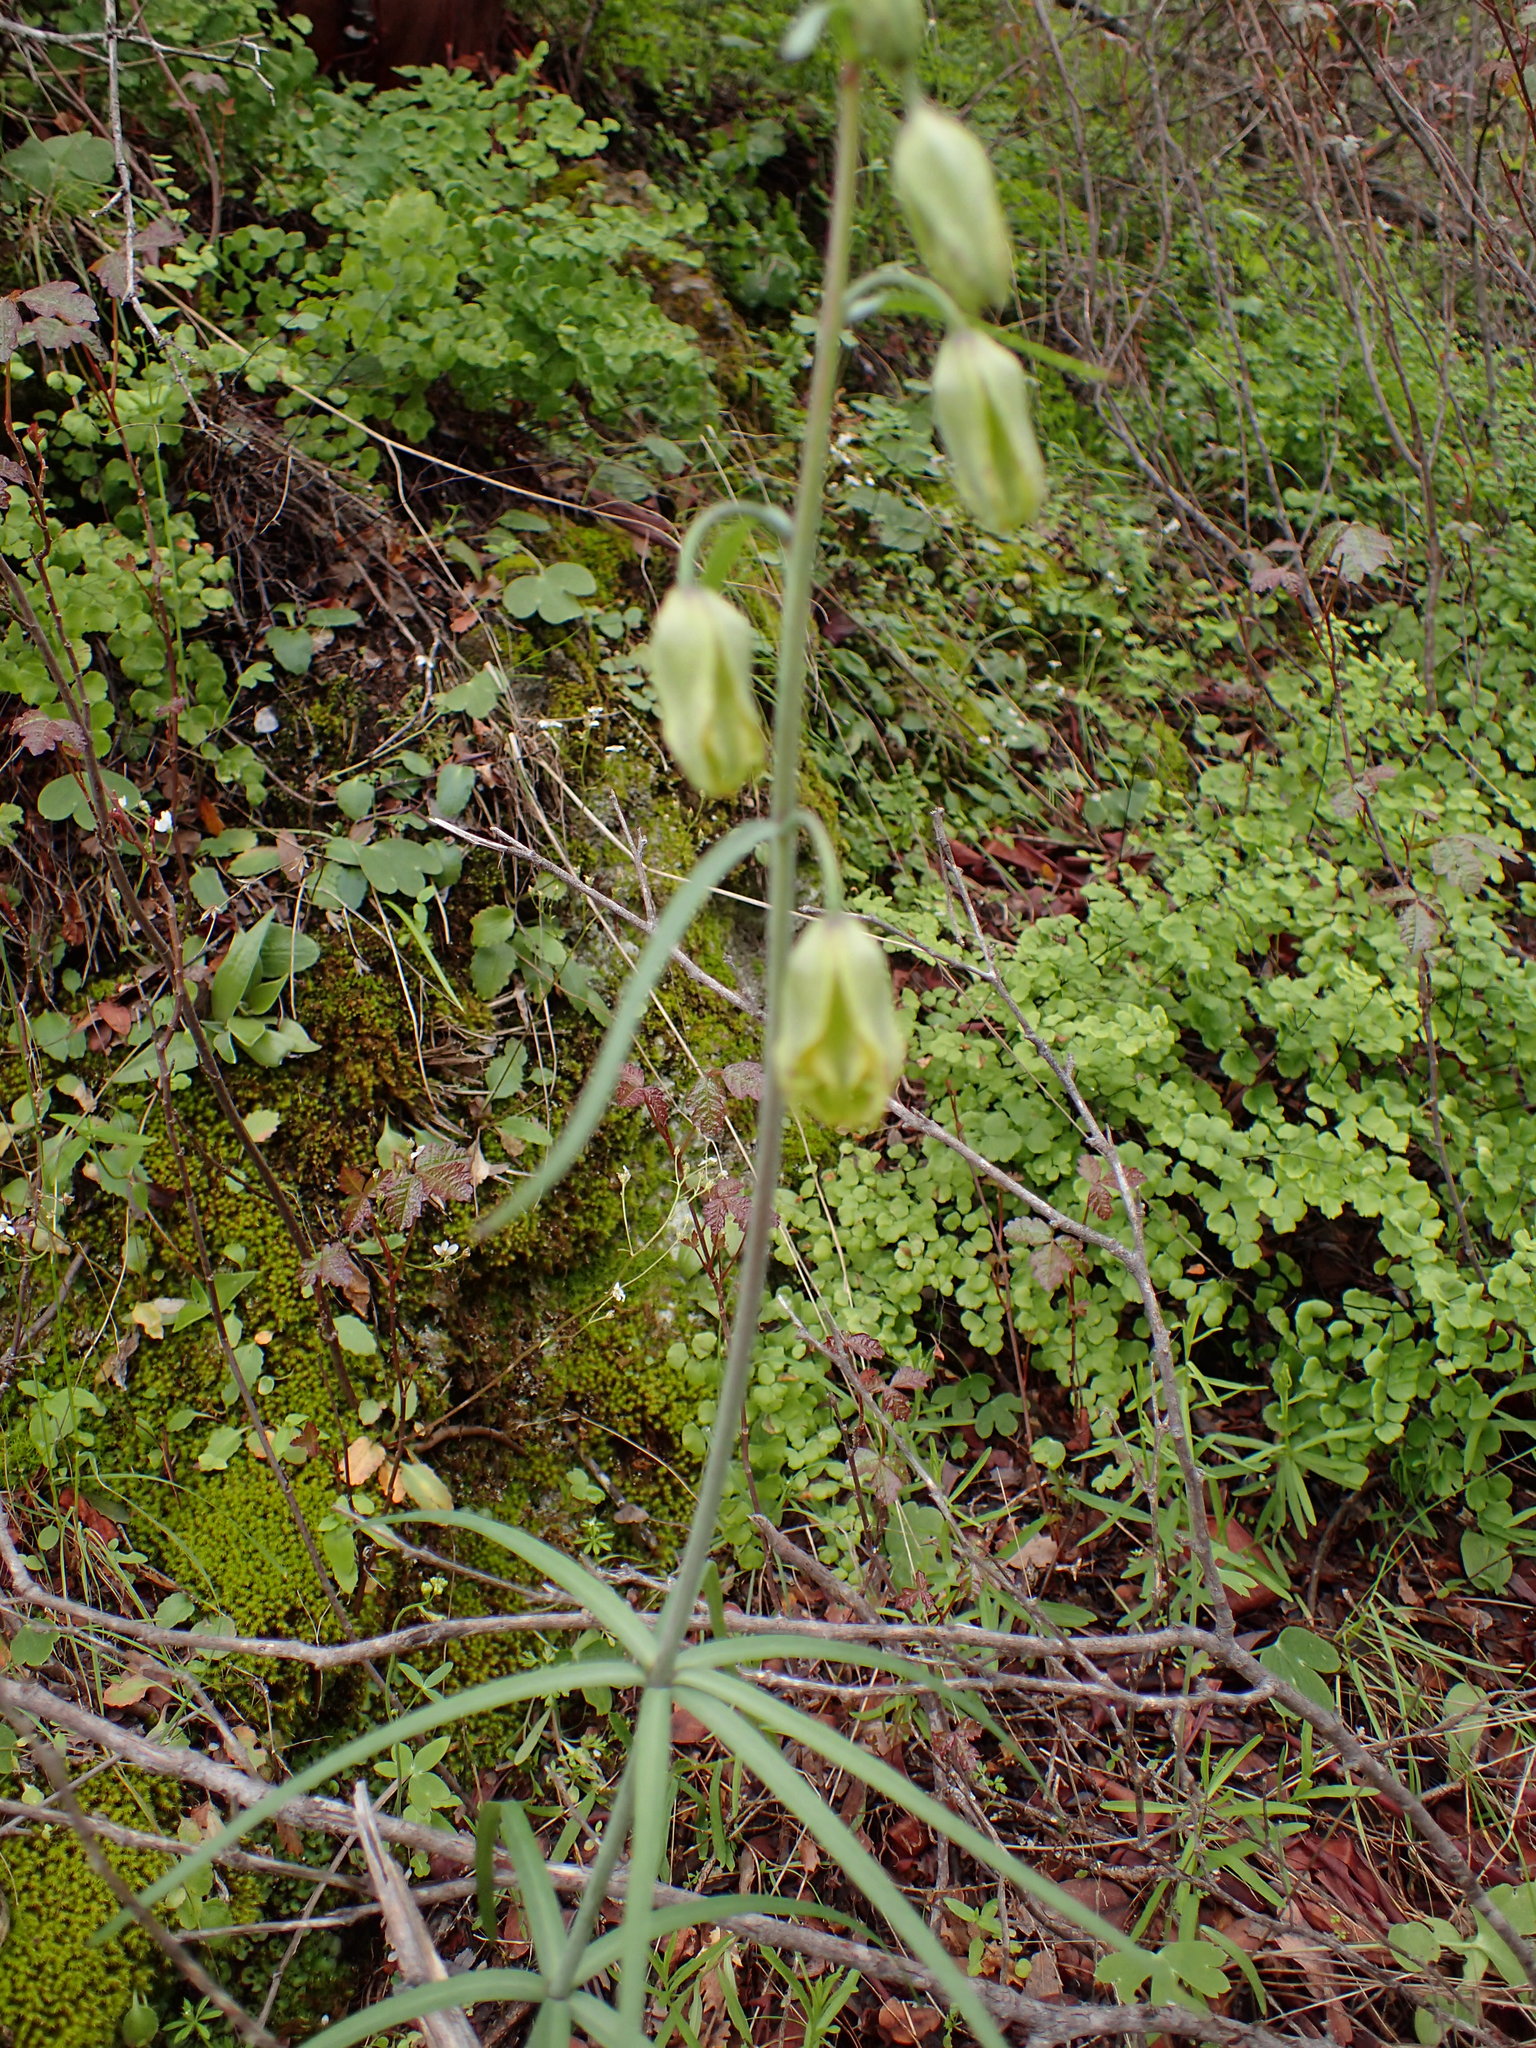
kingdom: Plantae
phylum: Tracheophyta
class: Liliopsida
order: Liliales
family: Liliaceae
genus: Fritillaria
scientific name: Fritillaria ojaiensis
